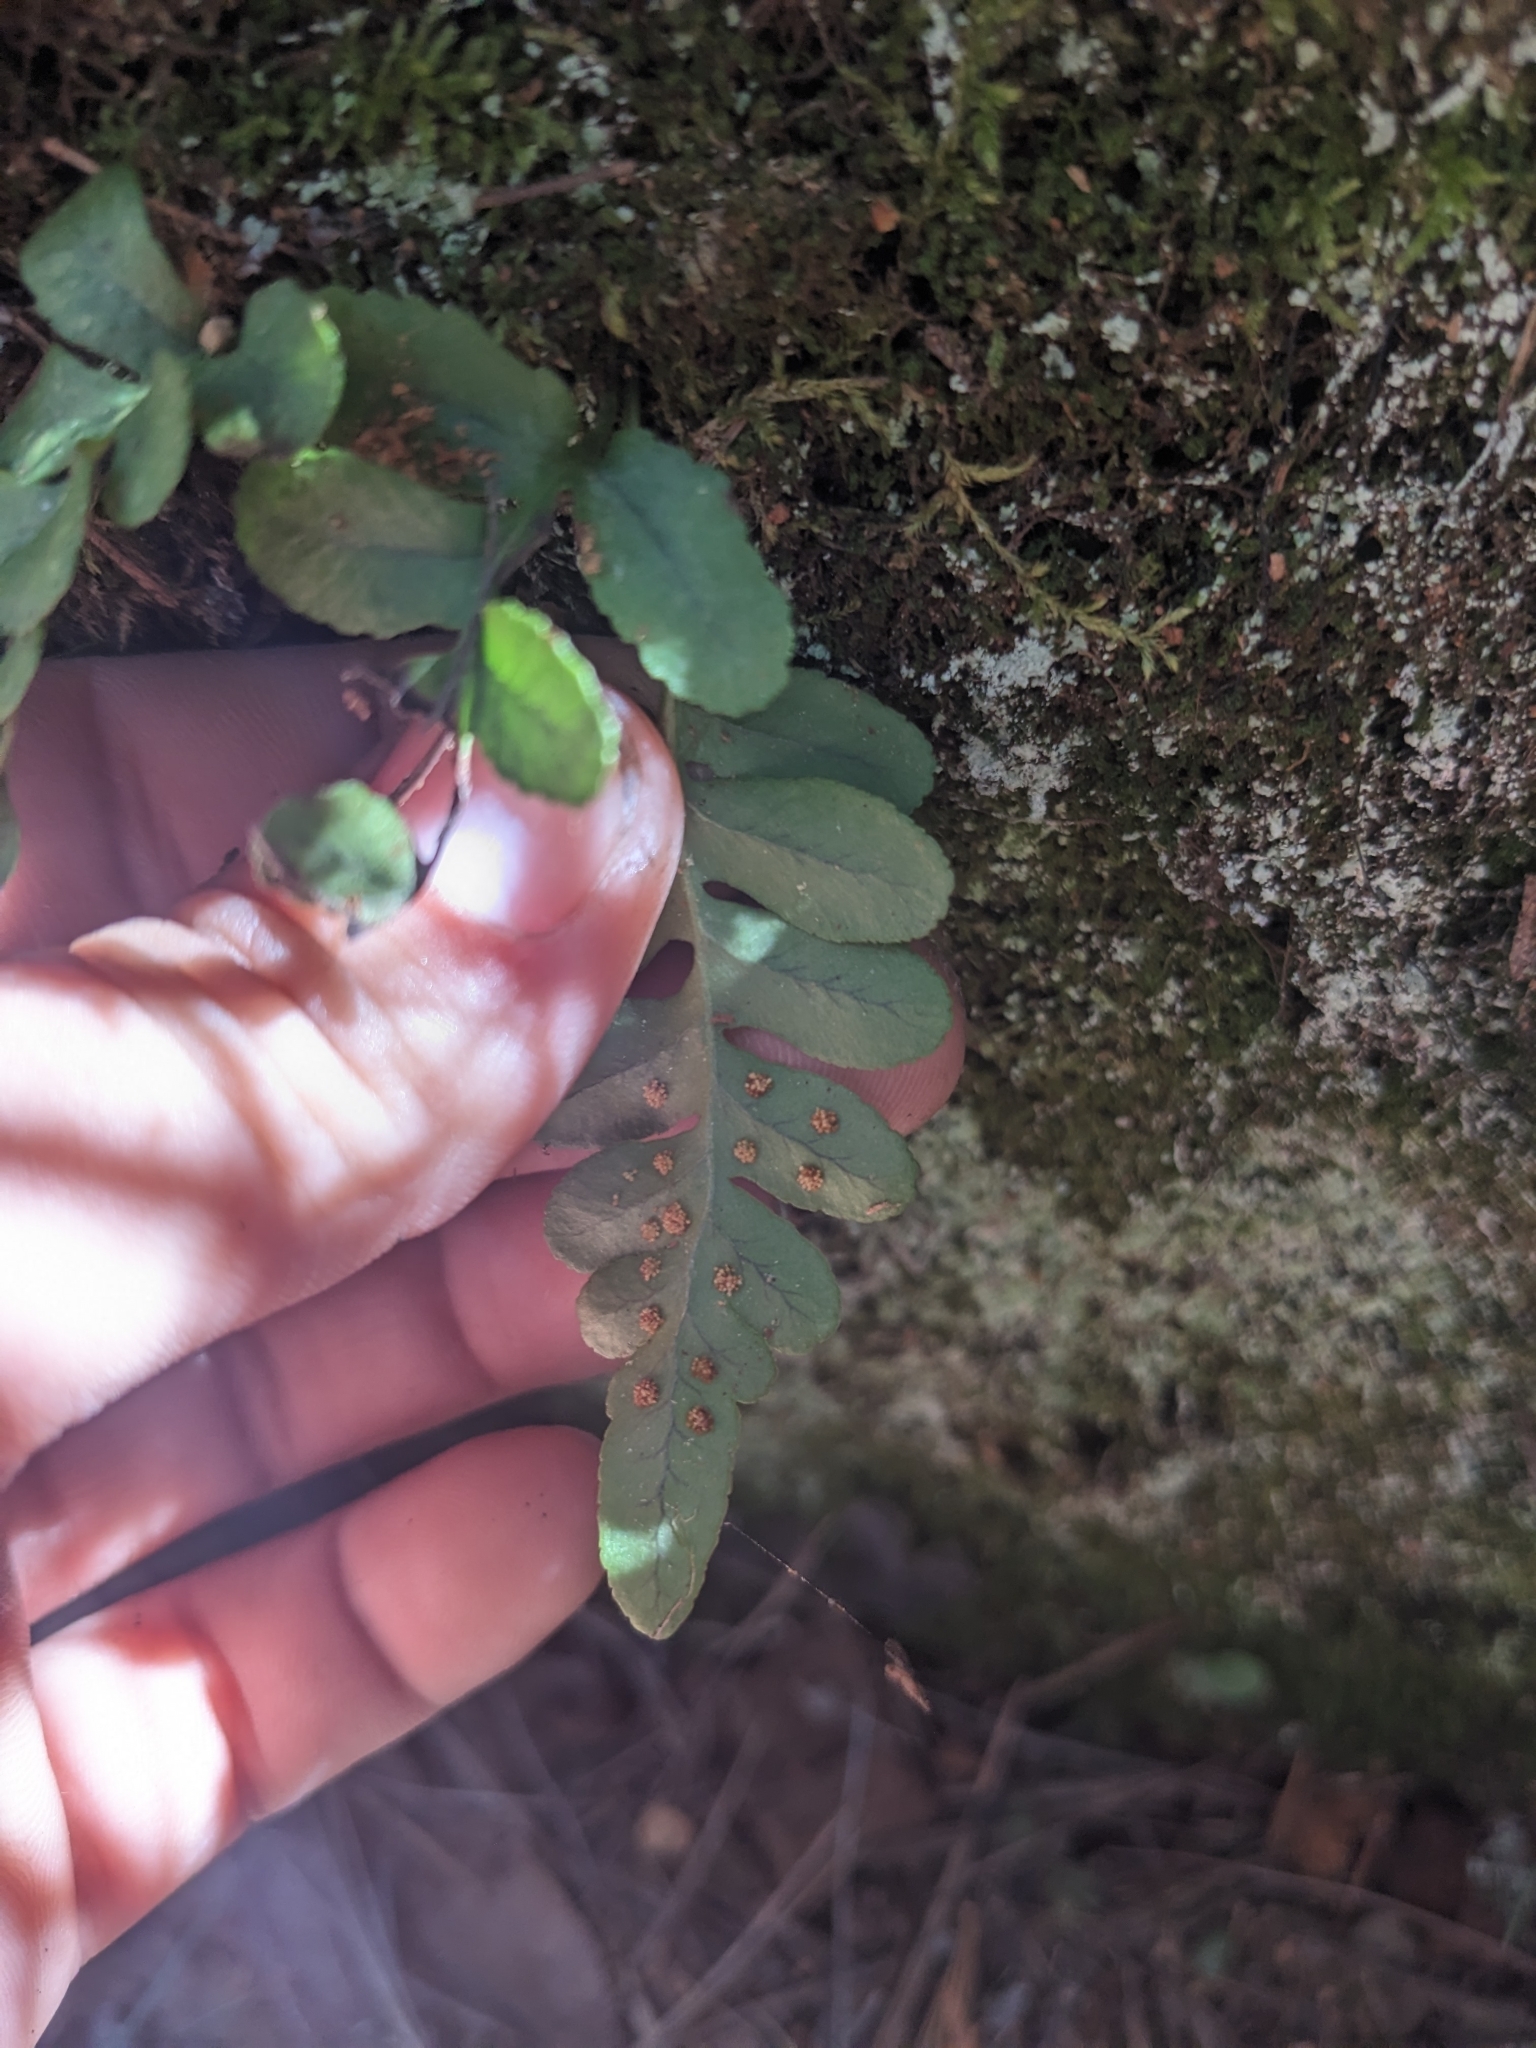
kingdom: Plantae
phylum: Tracheophyta
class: Polypodiopsida
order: Polypodiales
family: Polypodiaceae
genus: Polypodium
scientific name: Polypodium hesperium
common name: Western polypody
